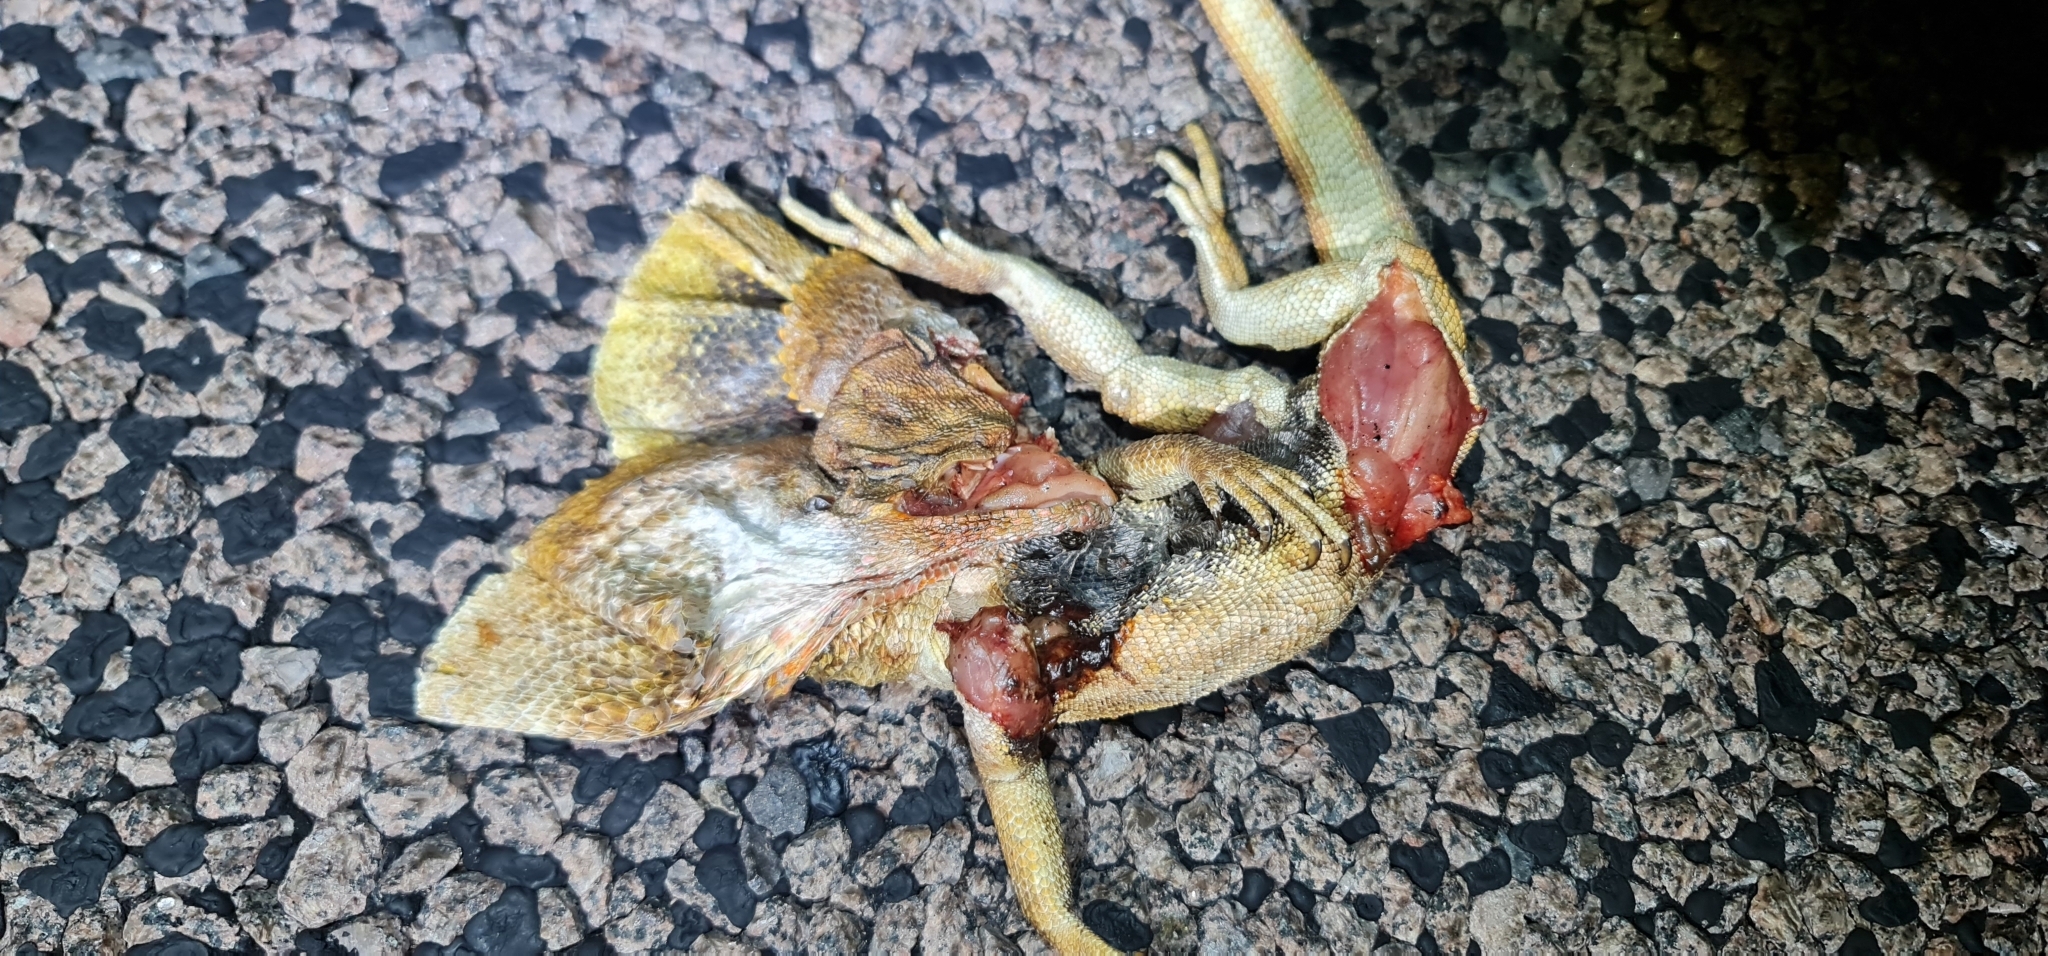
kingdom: Animalia
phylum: Chordata
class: Squamata
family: Agamidae
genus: Chlamydosaurus
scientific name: Chlamydosaurus kingii
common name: Frilled lizard
